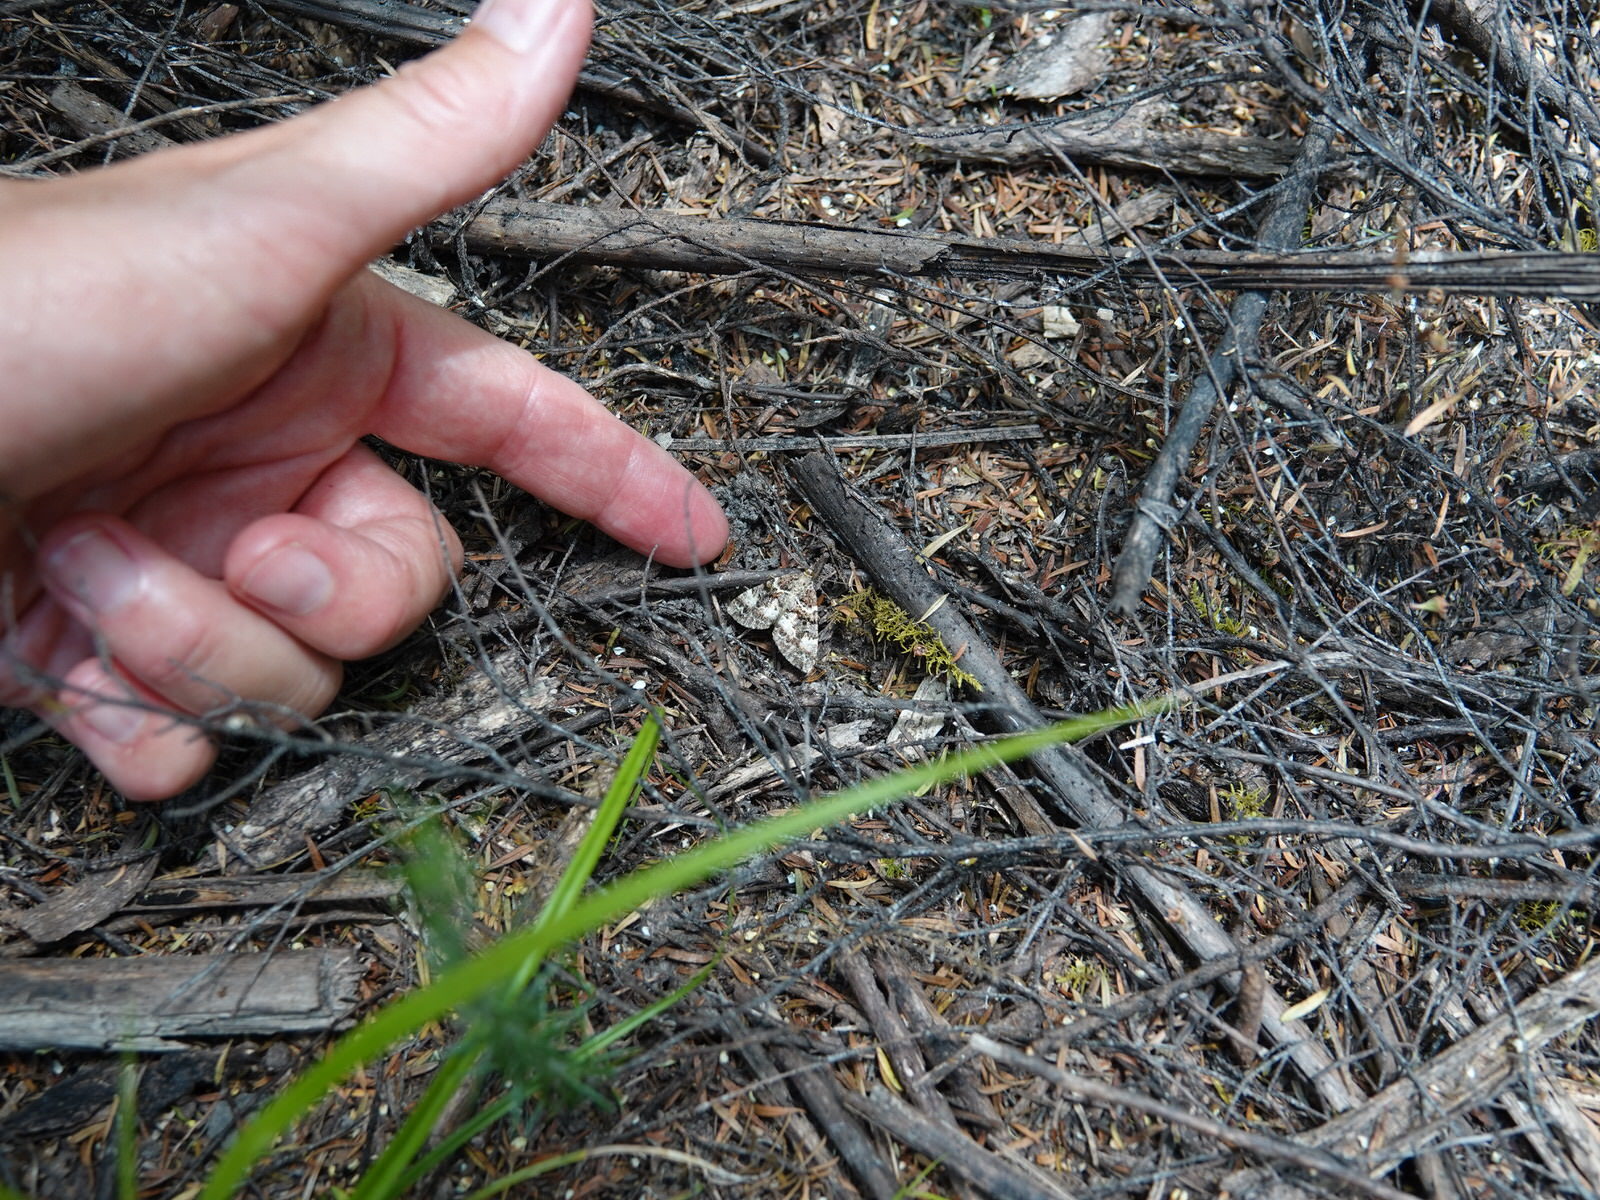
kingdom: Animalia
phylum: Arthropoda
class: Insecta
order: Lepidoptera
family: Geometridae
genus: Pseudocoremia
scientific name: Pseudocoremia productata
